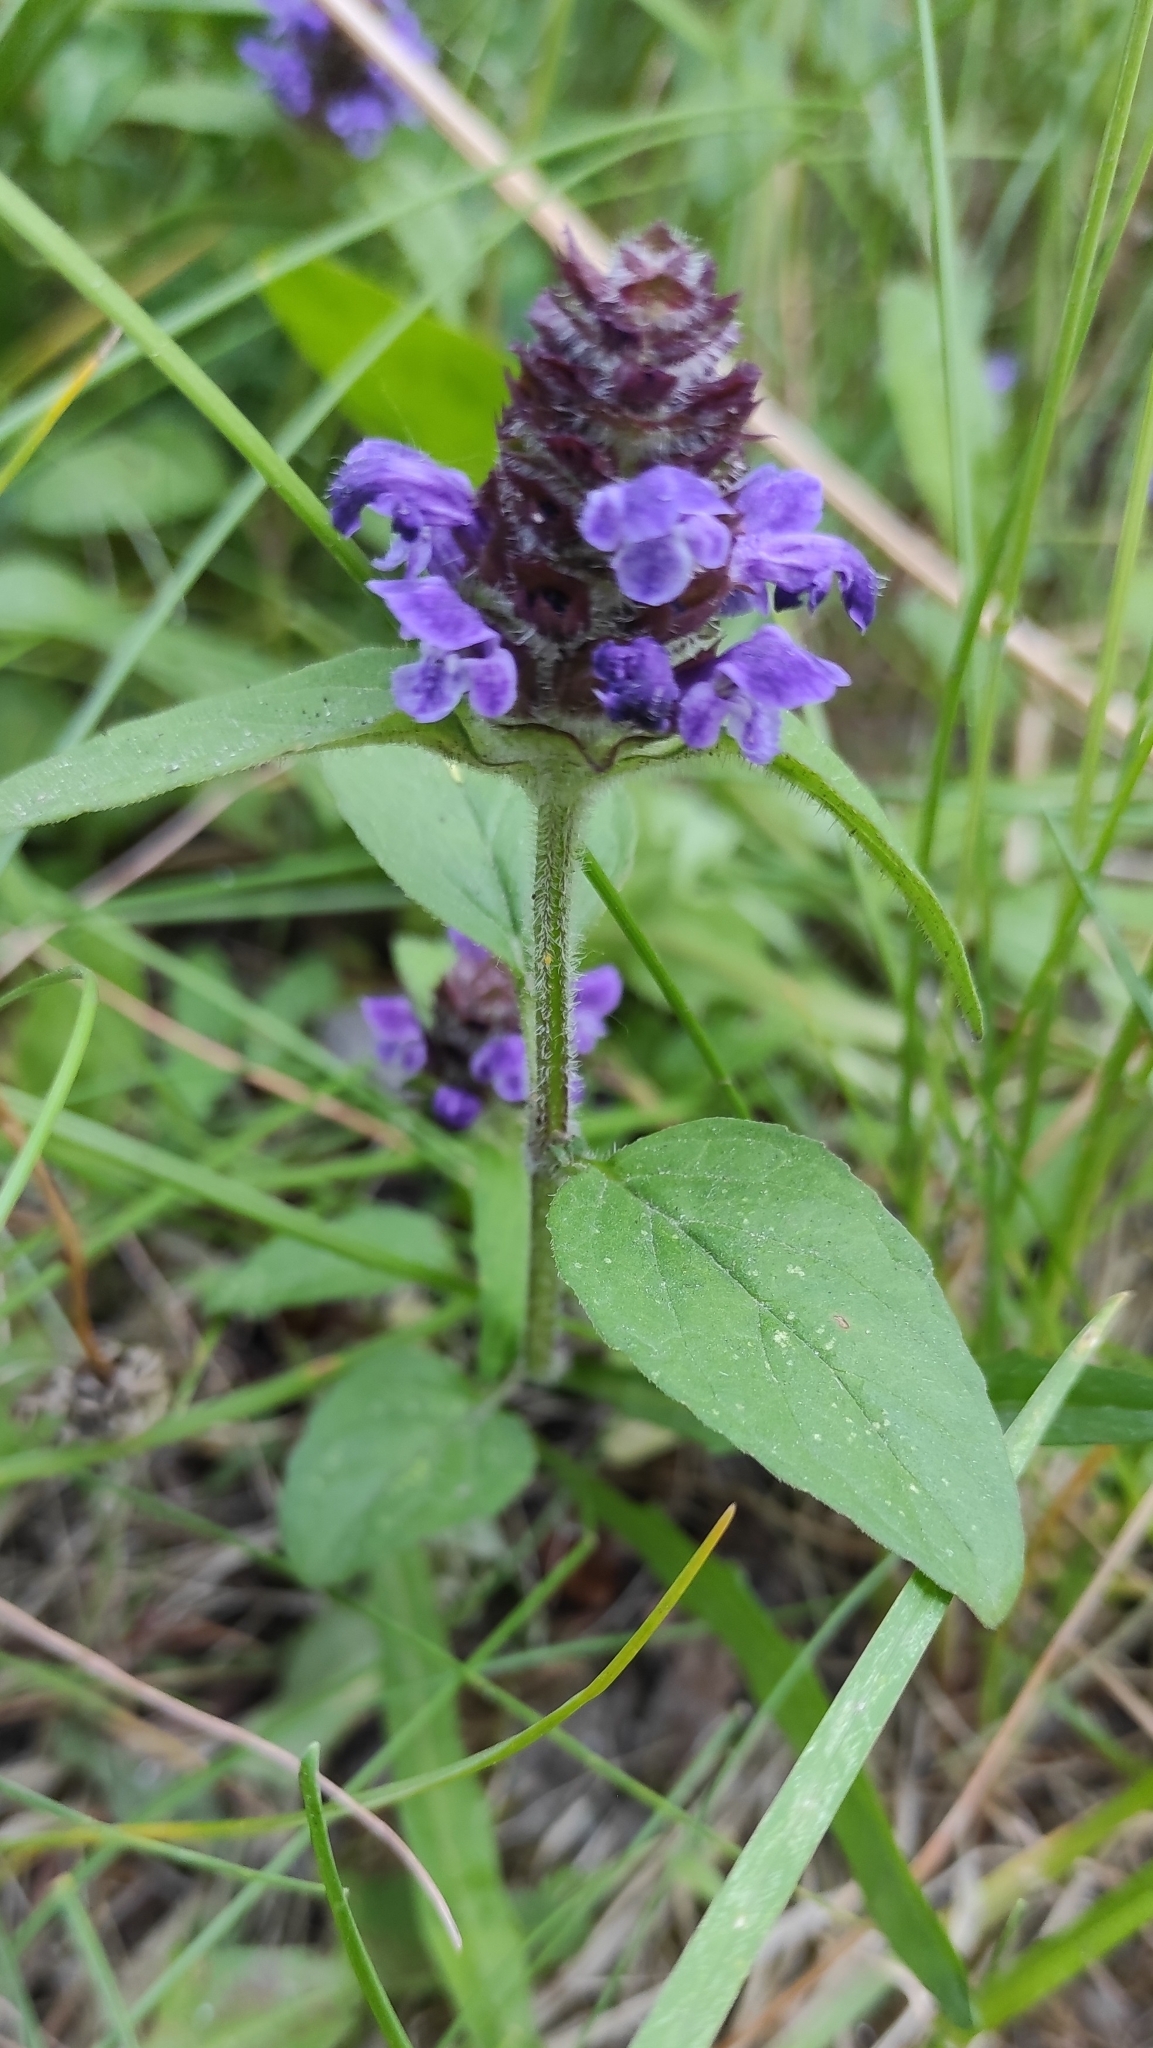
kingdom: Plantae
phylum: Tracheophyta
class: Magnoliopsida
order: Lamiales
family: Lamiaceae
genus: Prunella
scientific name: Prunella vulgaris
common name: Heal-all
